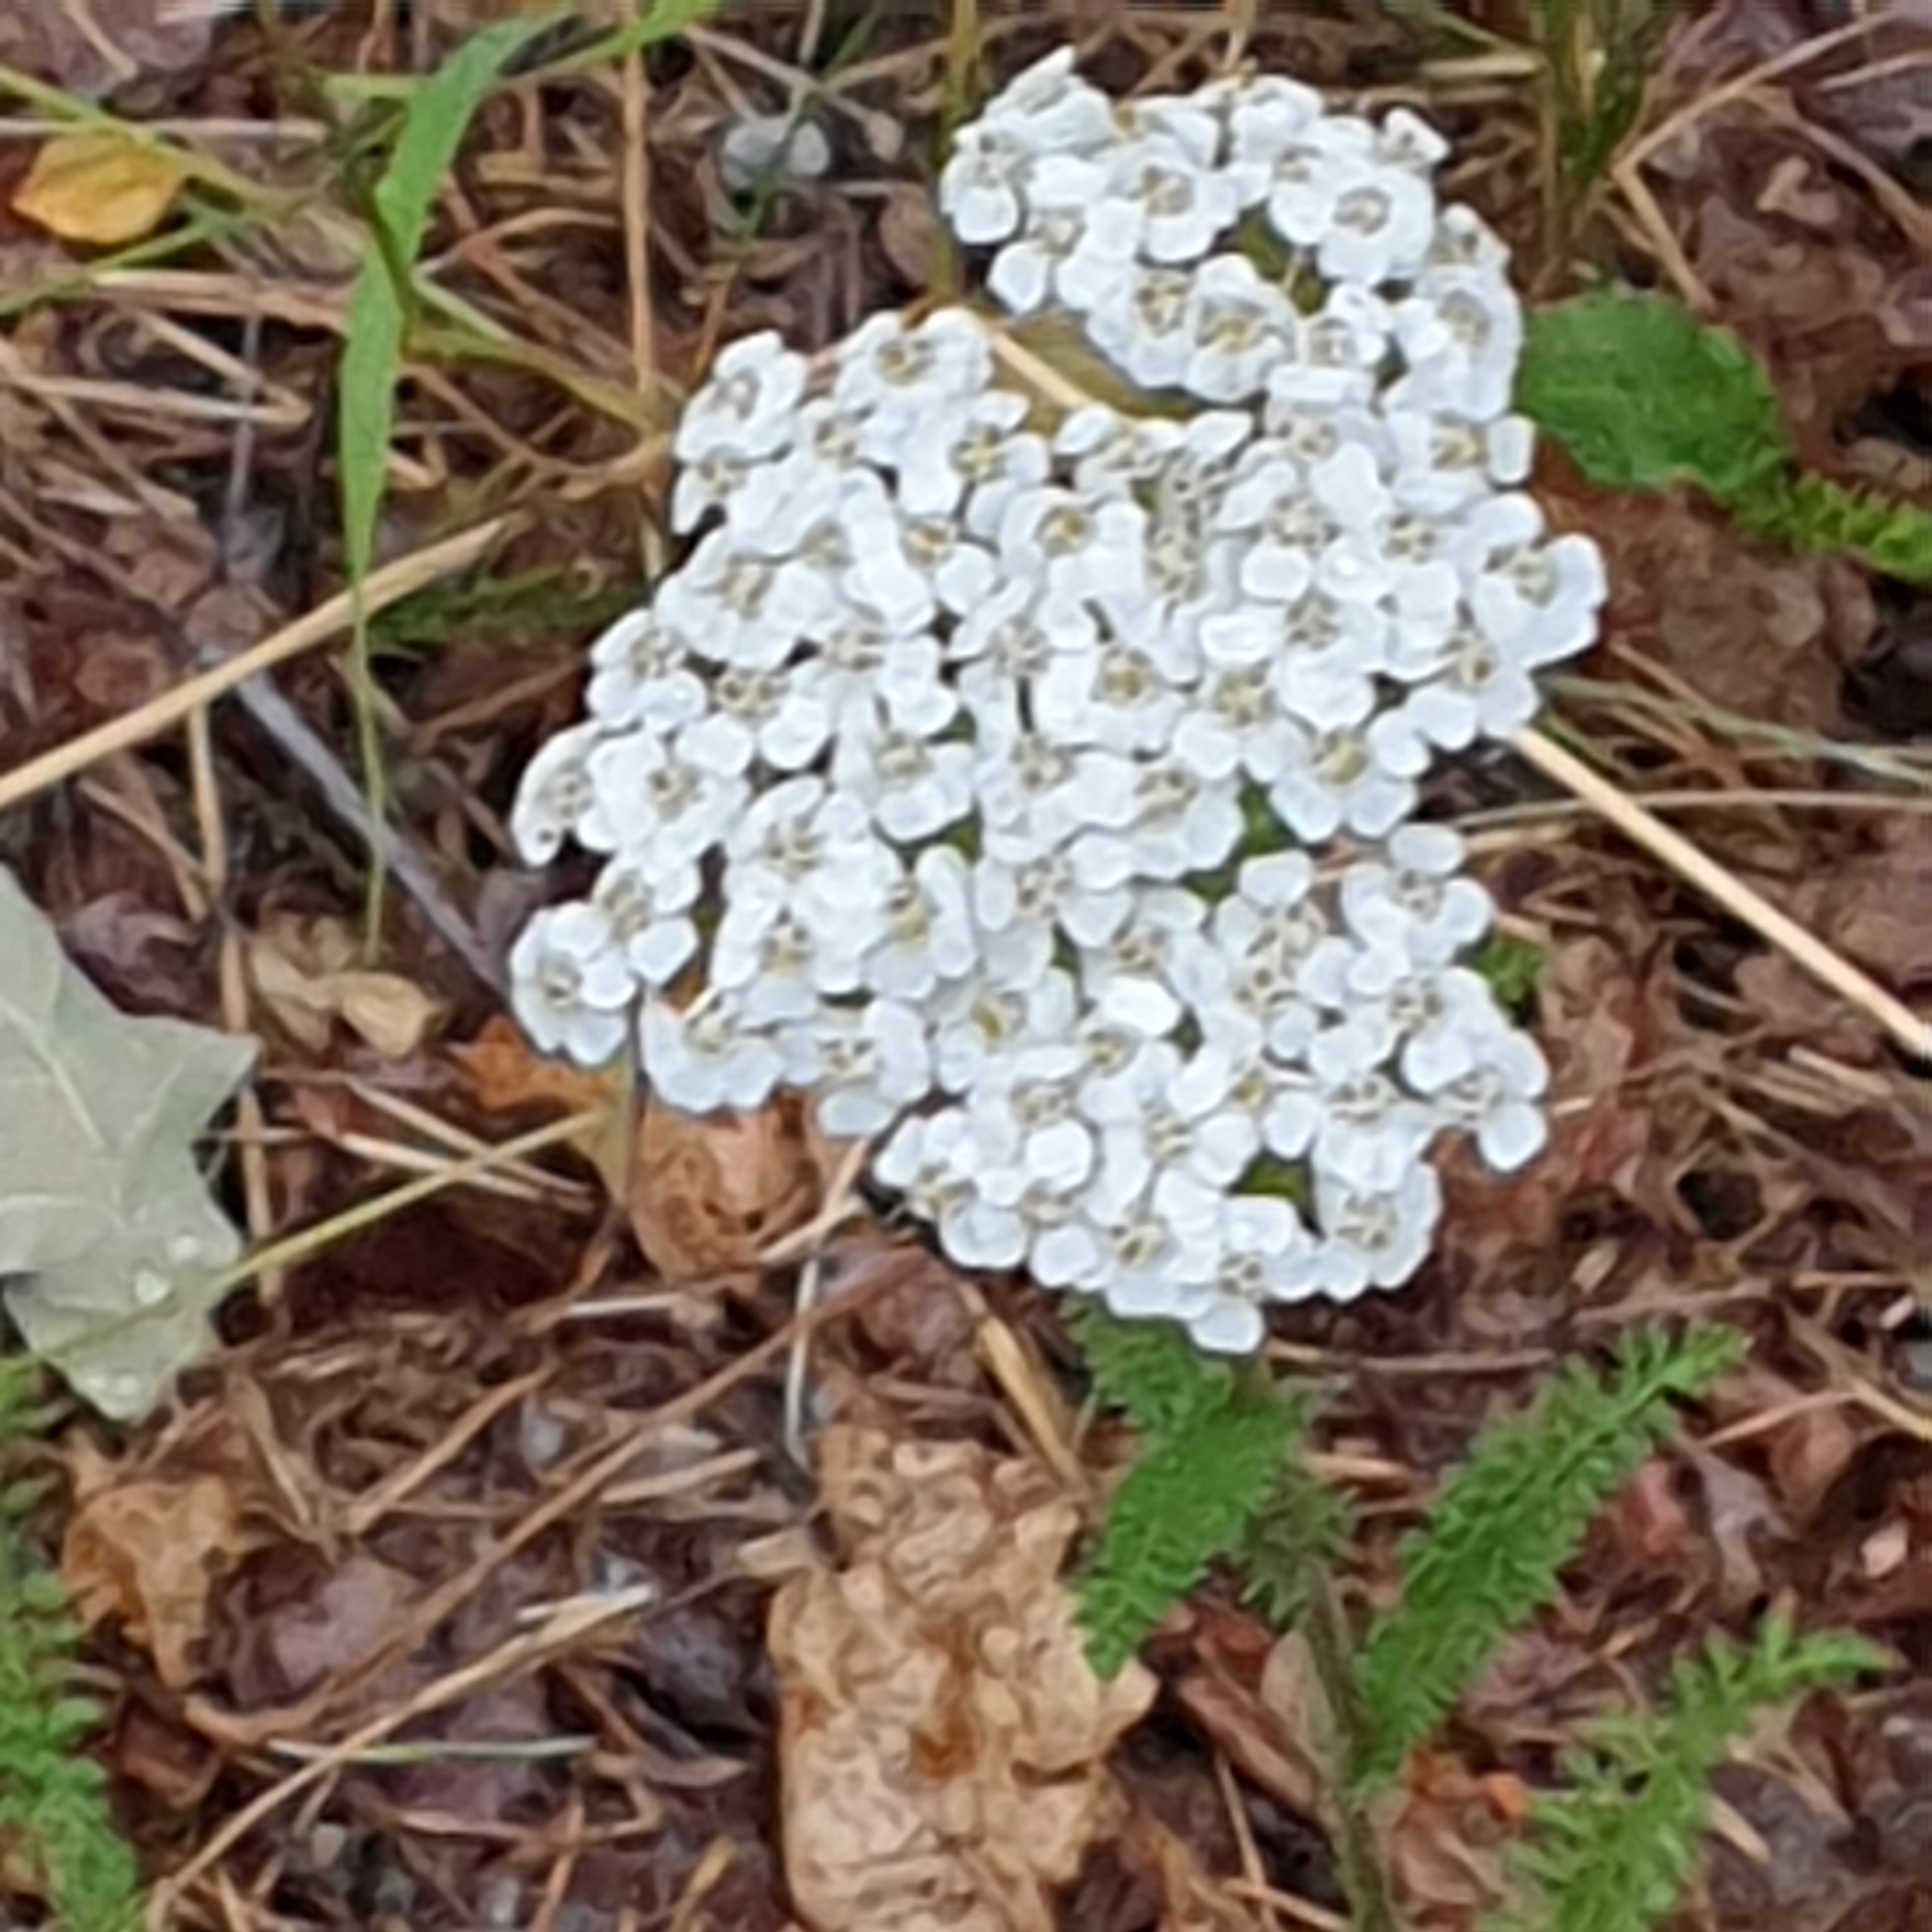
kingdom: Plantae
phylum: Tracheophyta
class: Magnoliopsida
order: Asterales
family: Asteraceae
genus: Achillea
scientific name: Achillea millefolium
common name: Yarrow
